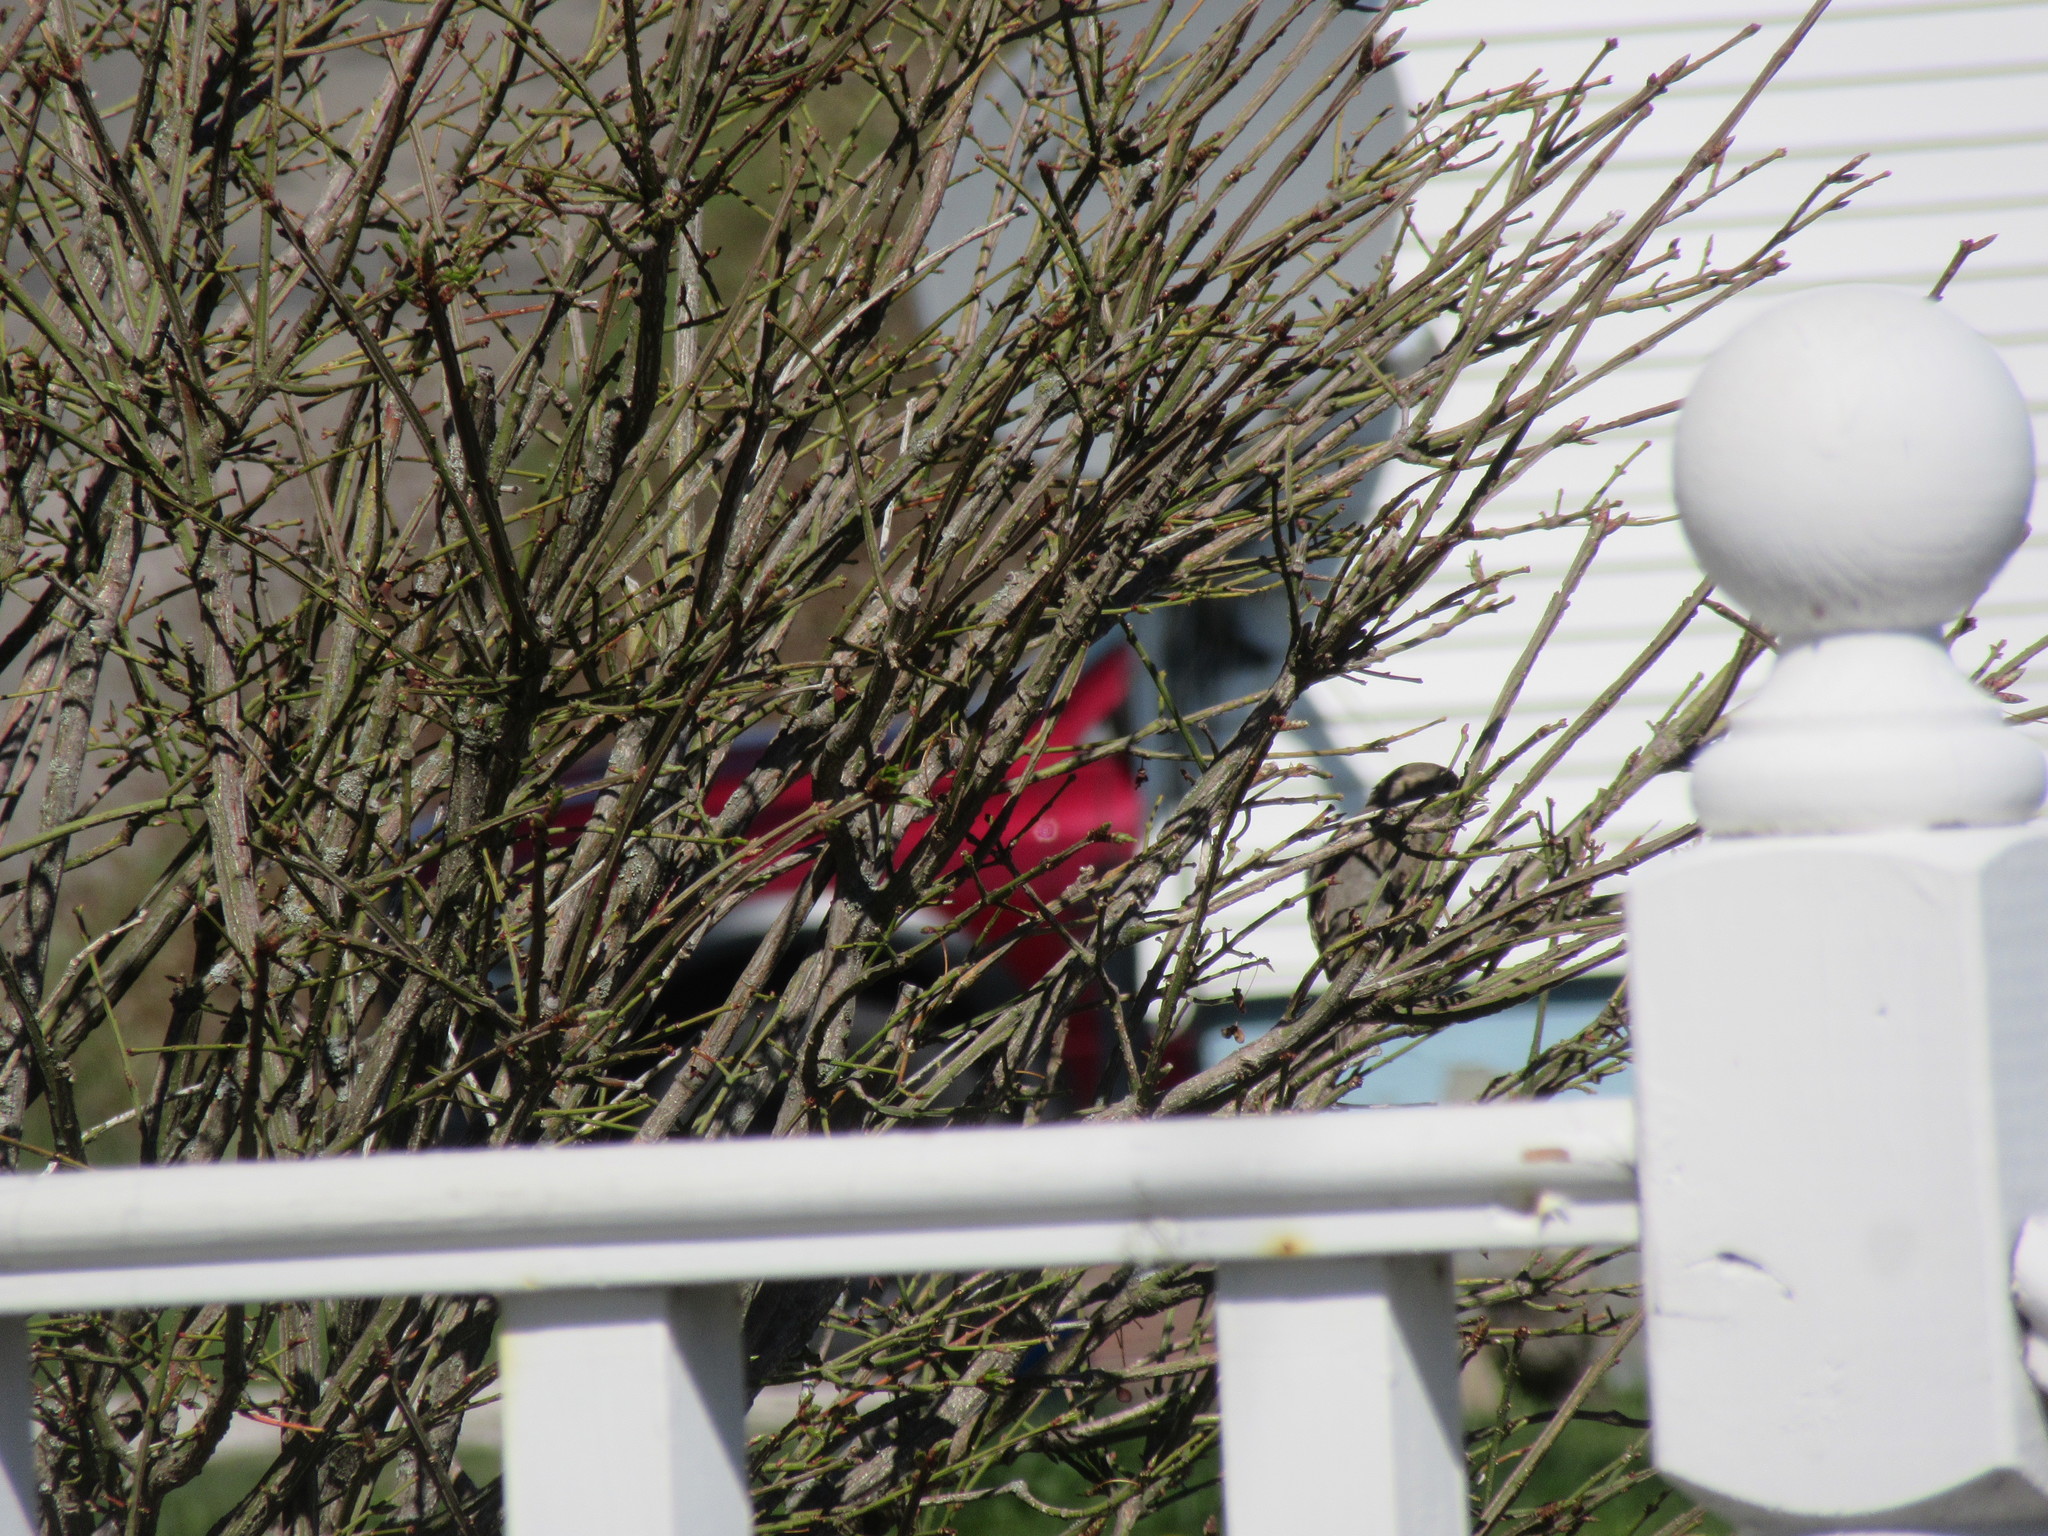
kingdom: Animalia
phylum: Chordata
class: Aves
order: Passeriformes
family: Passeridae
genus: Passer
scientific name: Passer domesticus
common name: House sparrow
